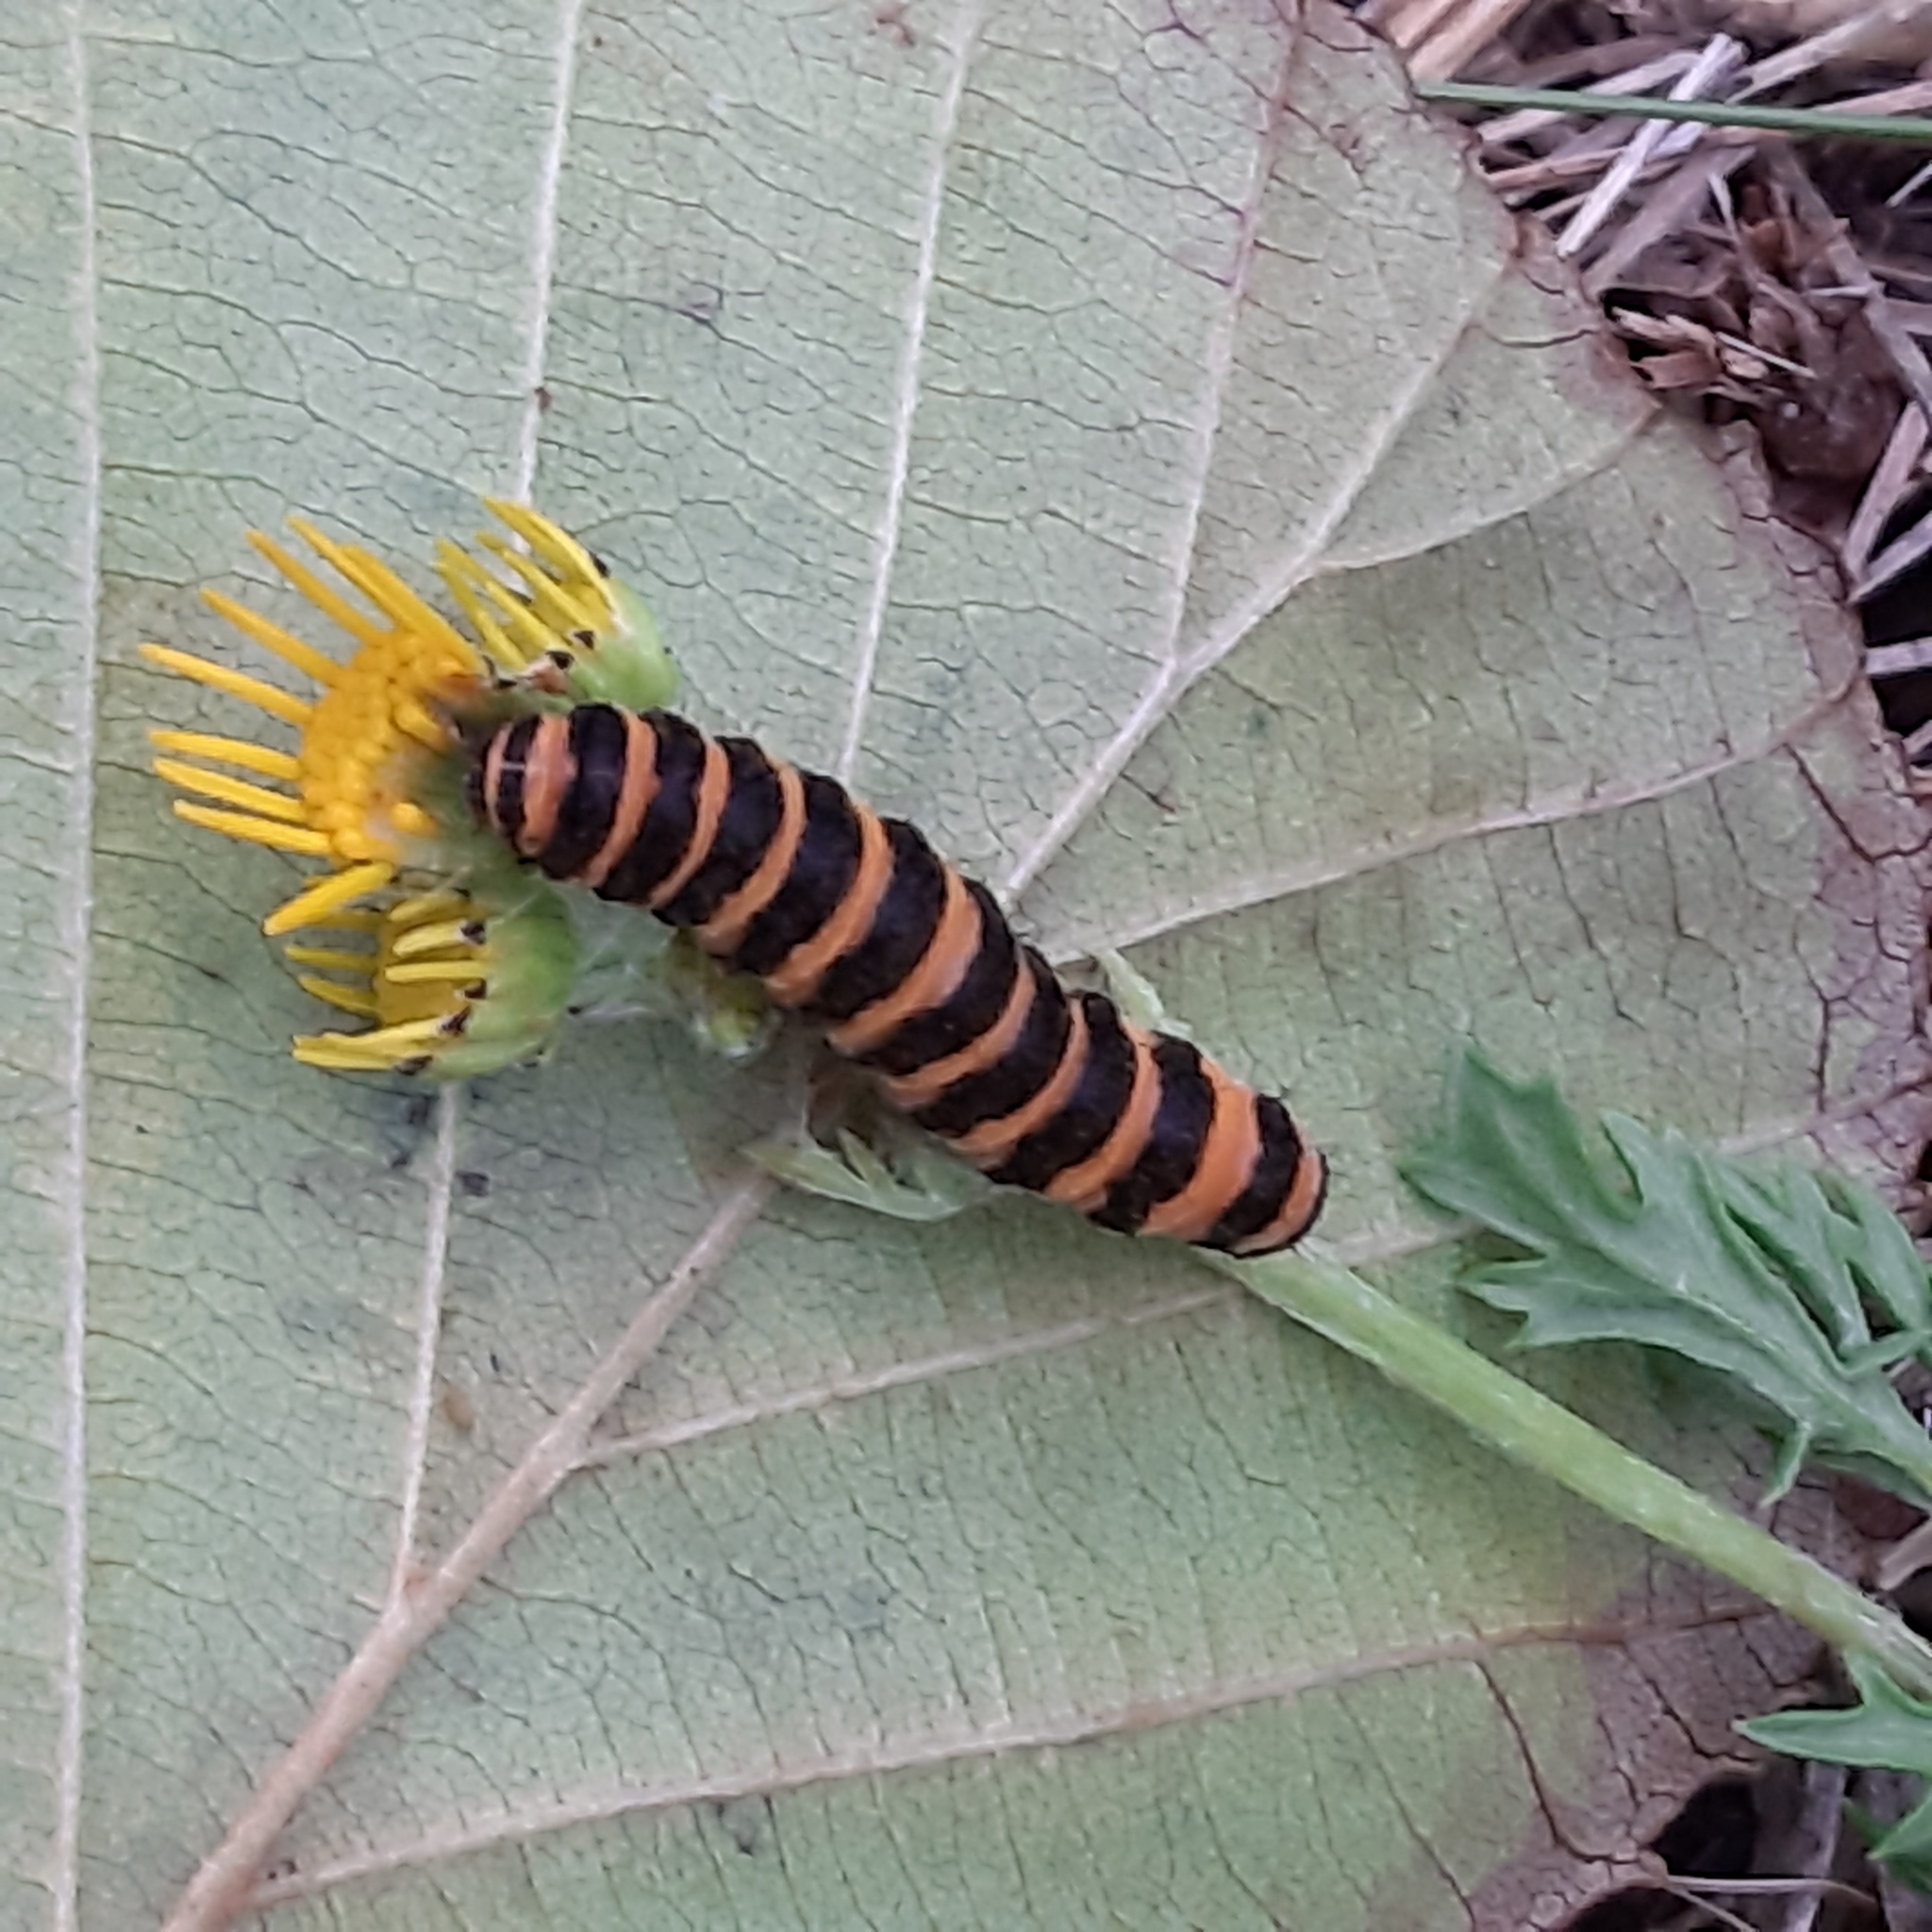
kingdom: Animalia
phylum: Arthropoda
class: Insecta
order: Lepidoptera
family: Erebidae
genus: Tyria
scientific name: Tyria jacobaeae
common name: Cinnabar
